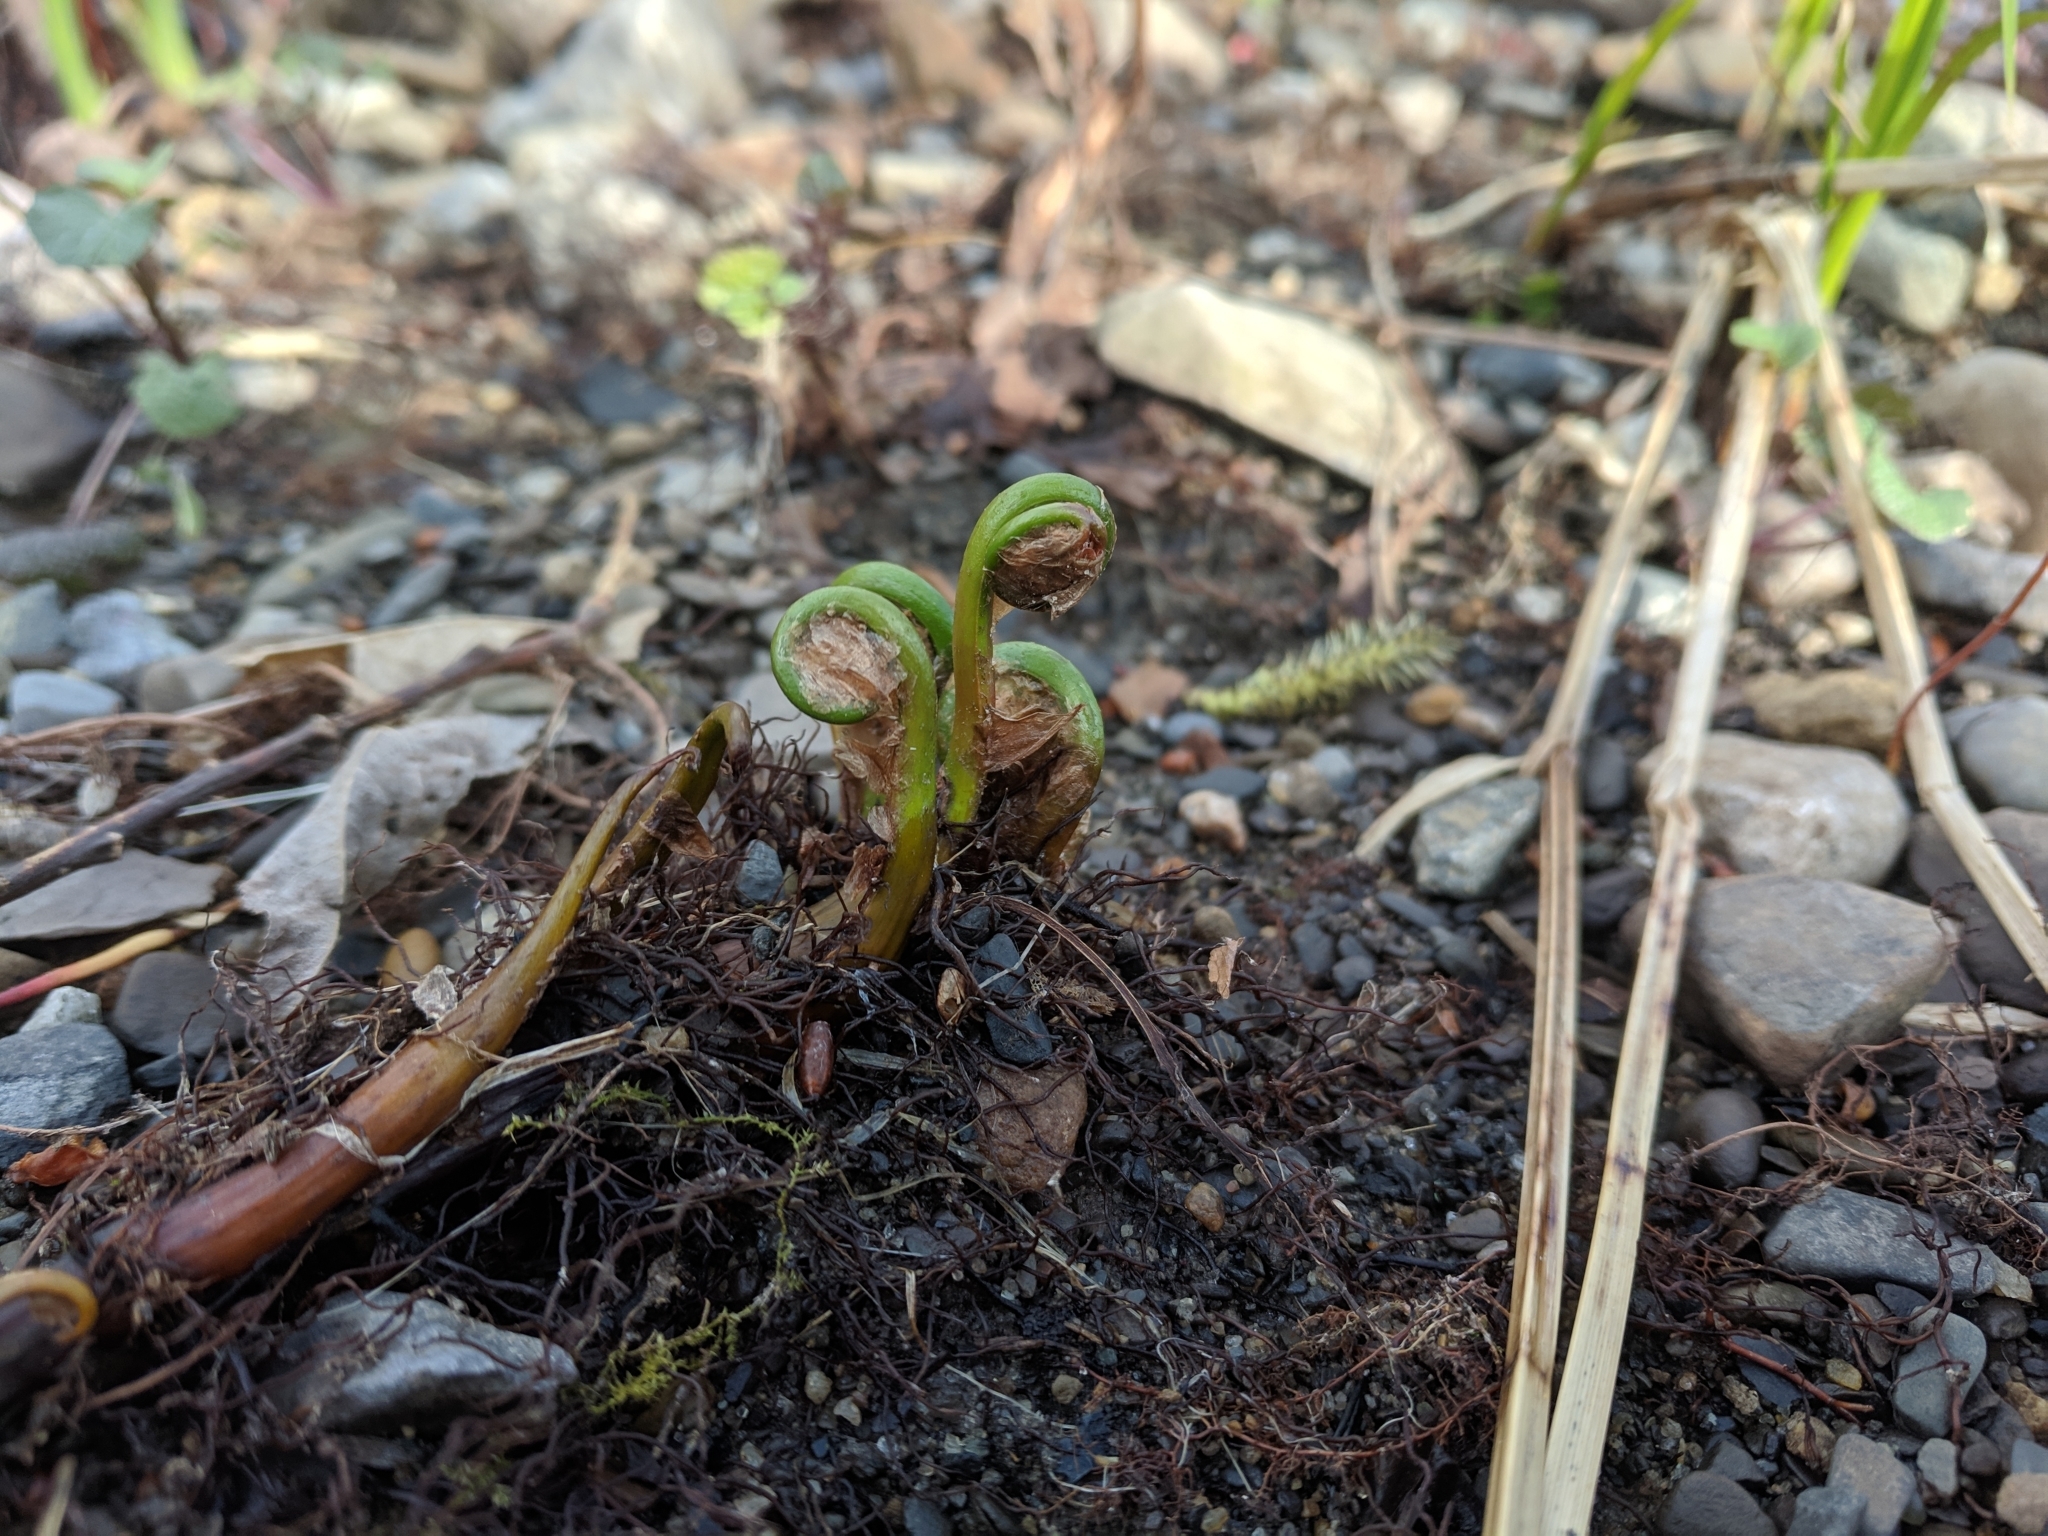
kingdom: Plantae
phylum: Tracheophyta
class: Polypodiopsida
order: Polypodiales
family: Onocleaceae
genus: Onoclea
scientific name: Onoclea sensibilis
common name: Sensitive fern
